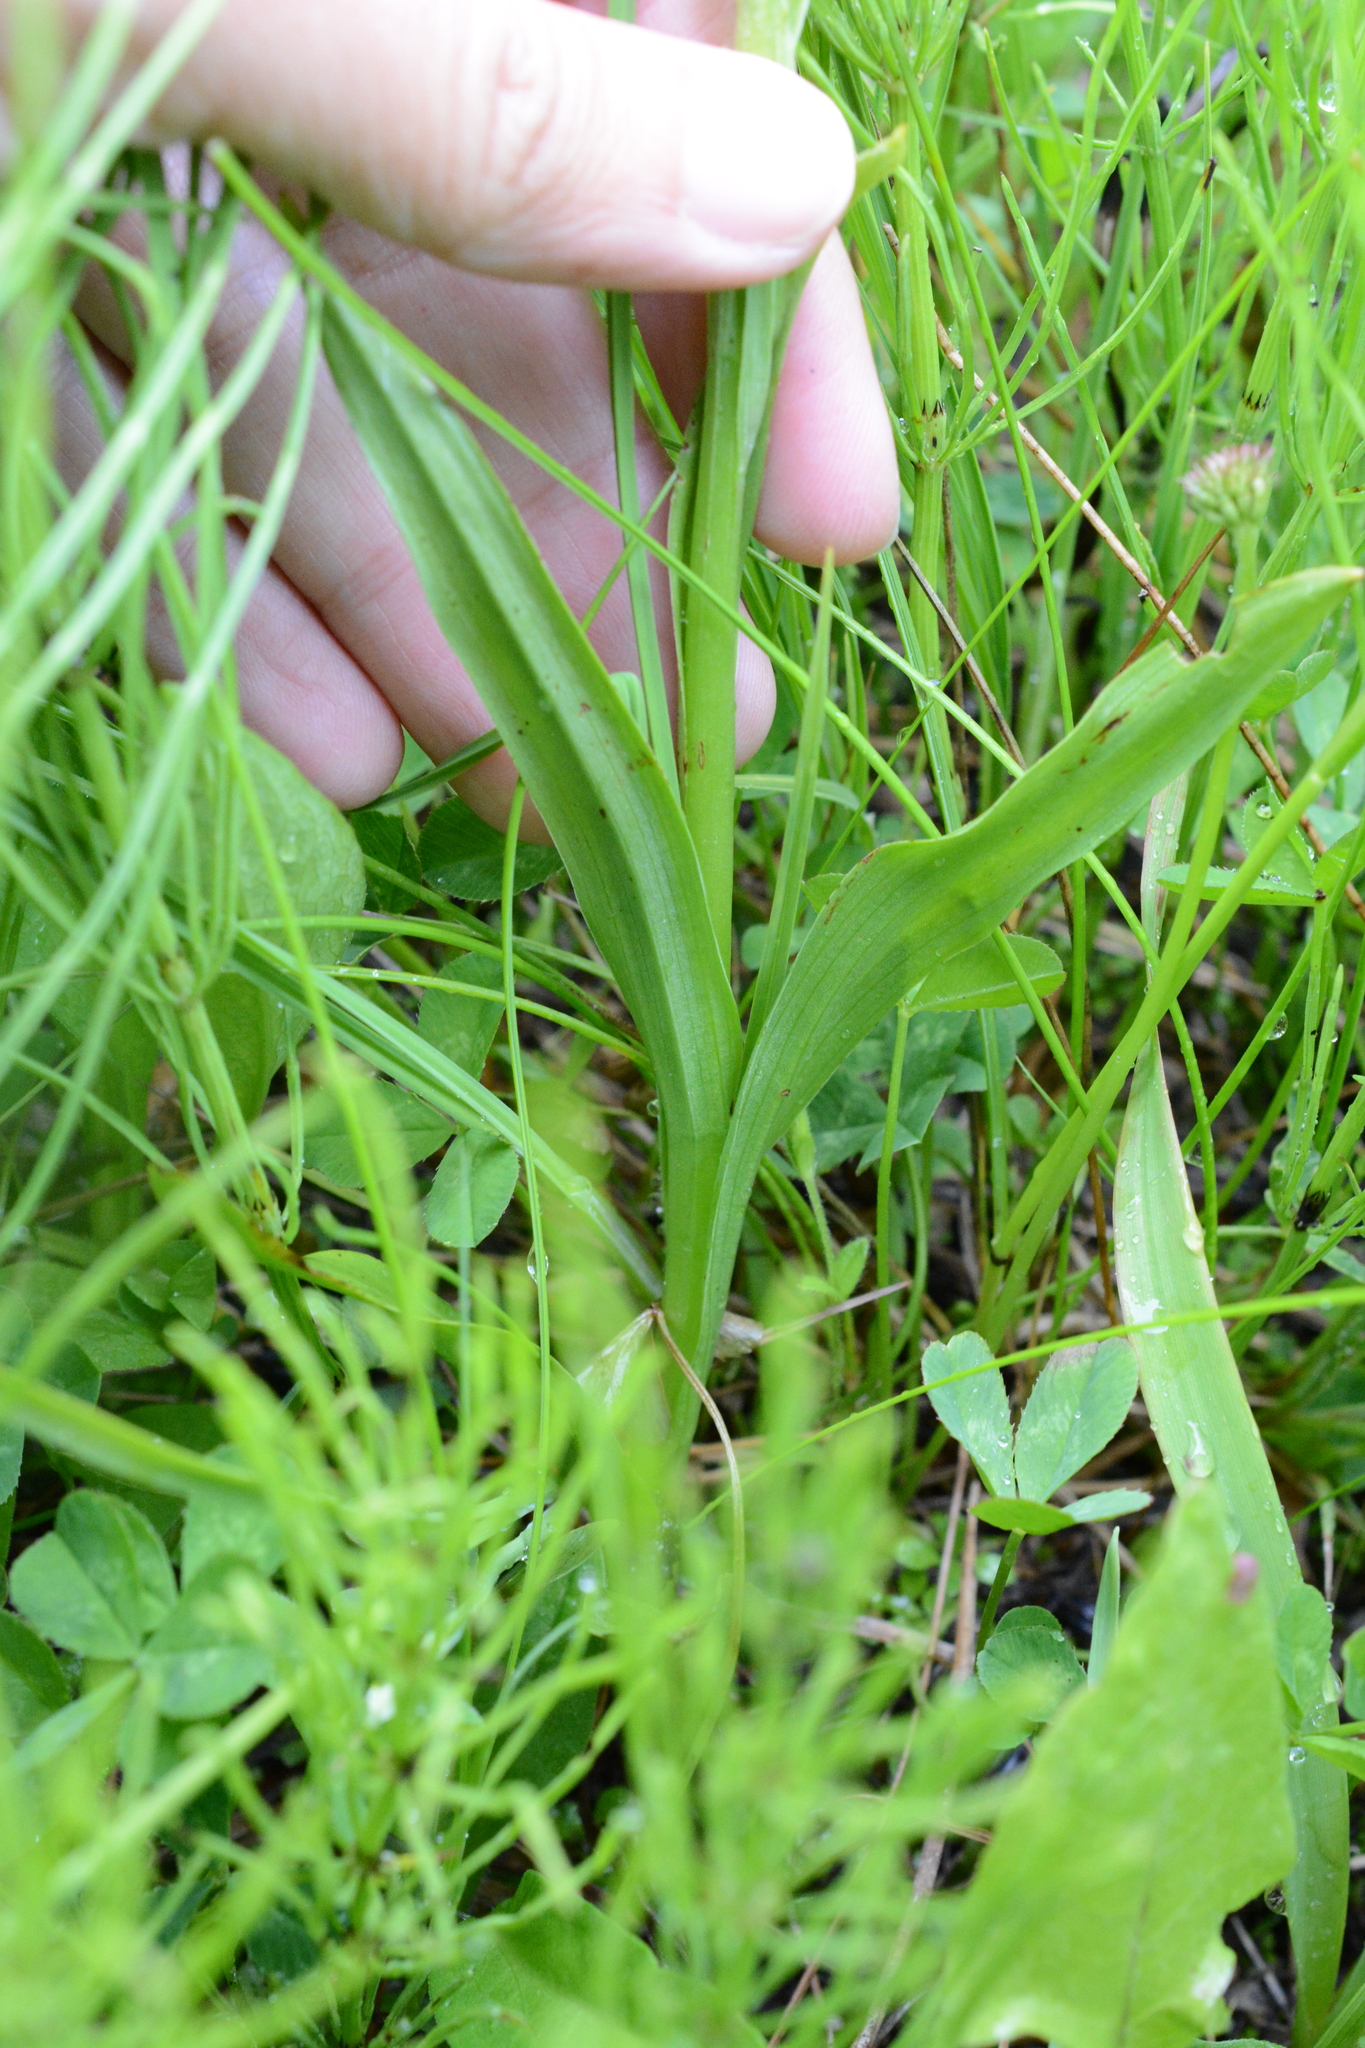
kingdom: Plantae
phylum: Tracheophyta
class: Liliopsida
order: Asparagales
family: Orchidaceae
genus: Platanthera
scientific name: Platanthera dilatata
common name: Bog candles
